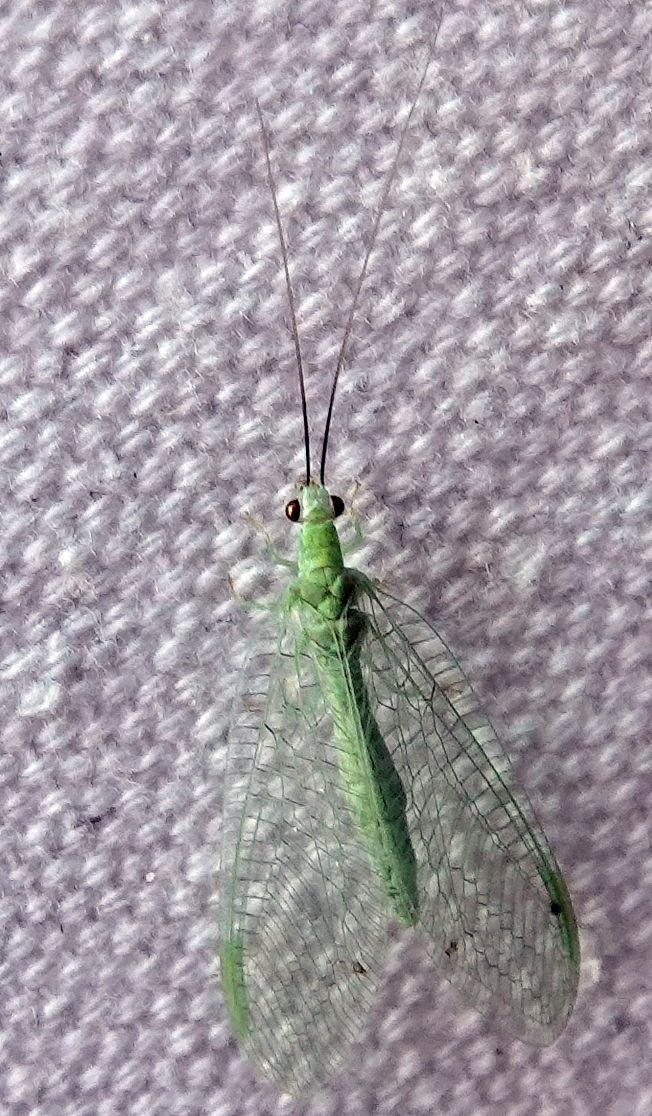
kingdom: Animalia
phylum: Arthropoda
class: Insecta
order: Neuroptera
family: Chrysopidae
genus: Chrysopa
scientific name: Chrysopa nigricornis
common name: Black-horned green lacewing
